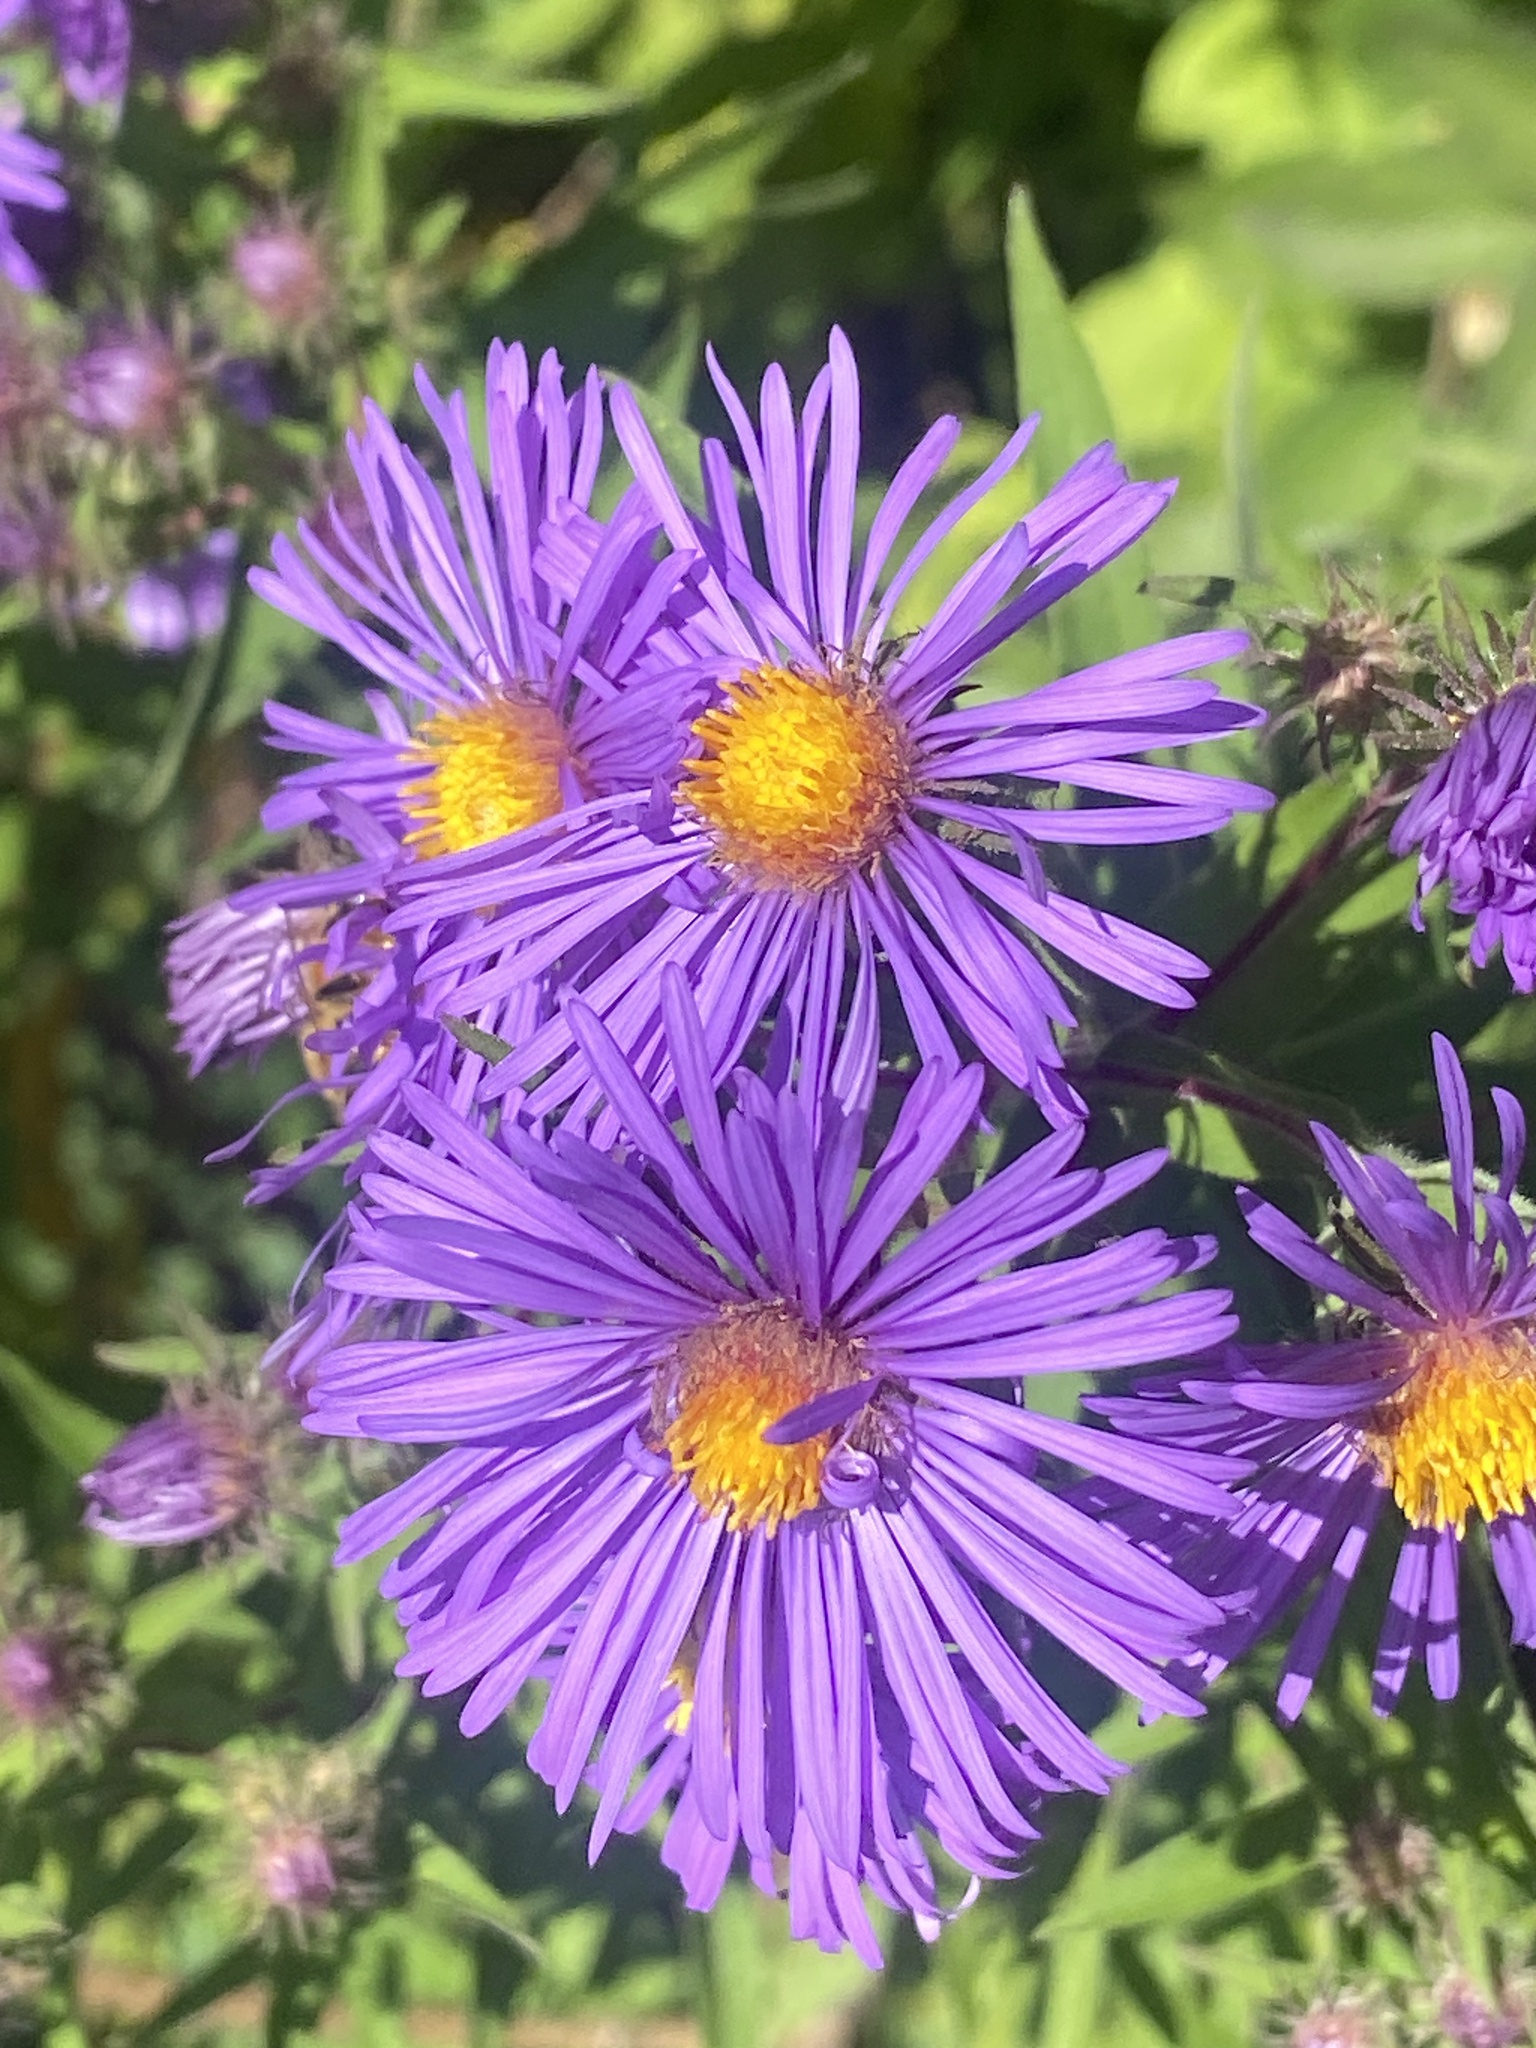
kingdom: Plantae
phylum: Tracheophyta
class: Magnoliopsida
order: Asterales
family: Asteraceae
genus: Symphyotrichum
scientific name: Symphyotrichum novae-angliae
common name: Michaelmas daisy
